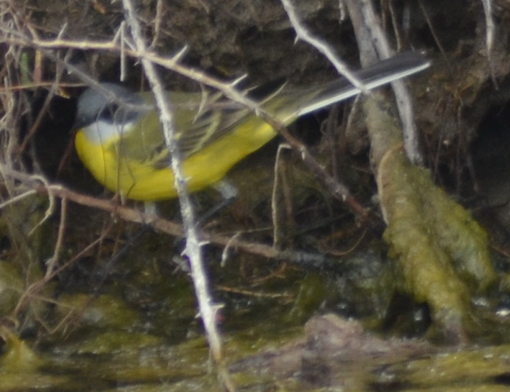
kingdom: Animalia
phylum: Chordata
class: Aves
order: Passeriformes
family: Motacillidae
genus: Motacilla
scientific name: Motacilla flava
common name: Western yellow wagtail
